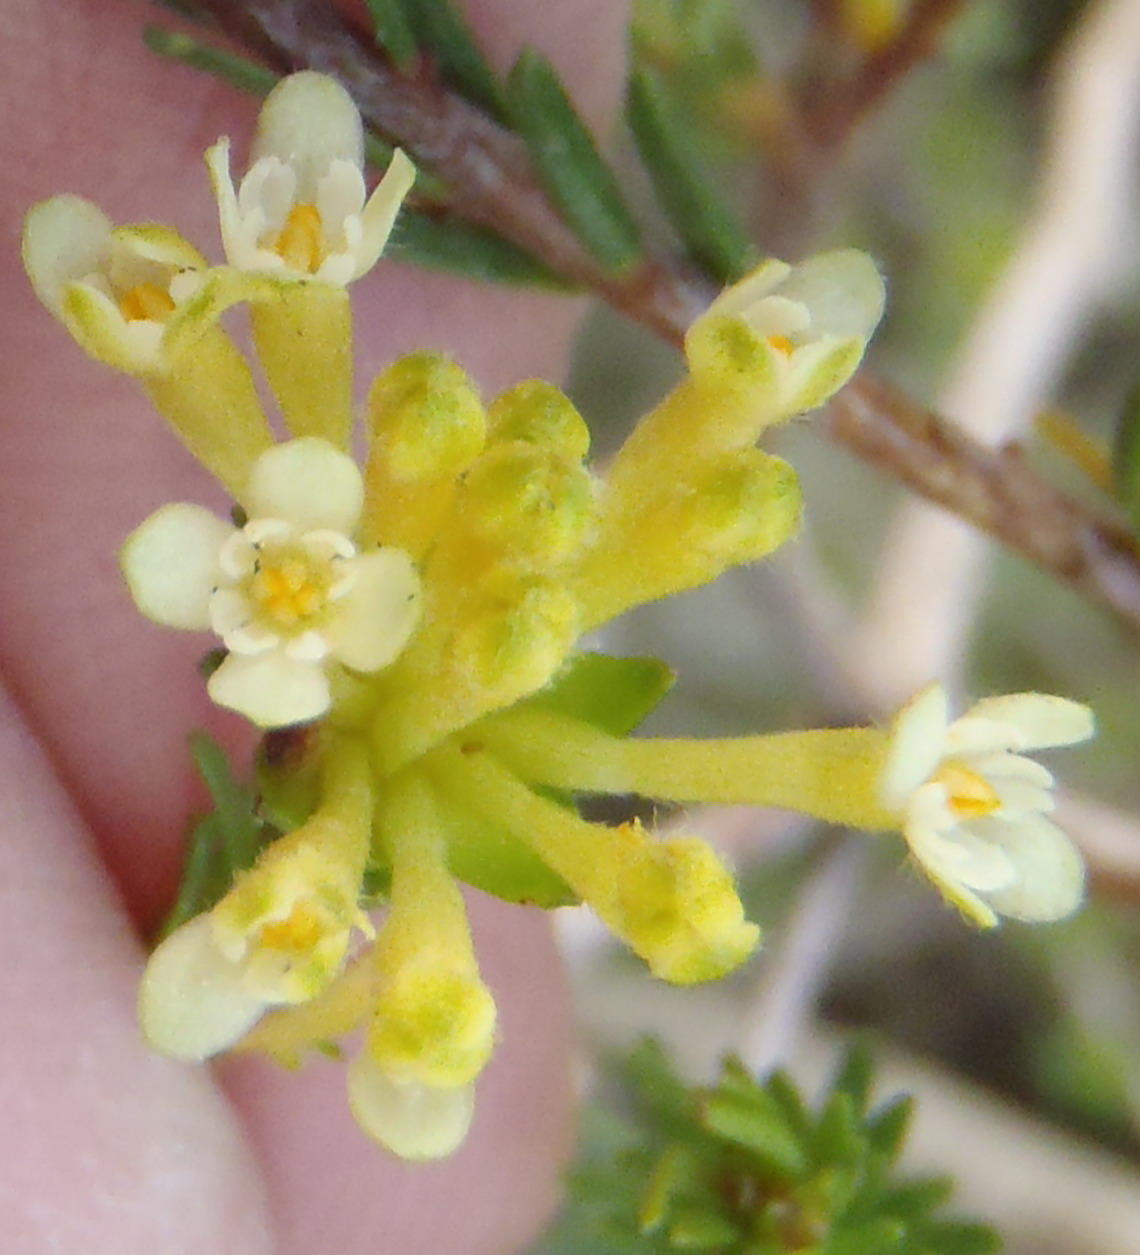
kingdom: Plantae
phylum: Tracheophyta
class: Magnoliopsida
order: Malvales
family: Thymelaeaceae
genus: Gnidia
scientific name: Gnidia squarrosa
